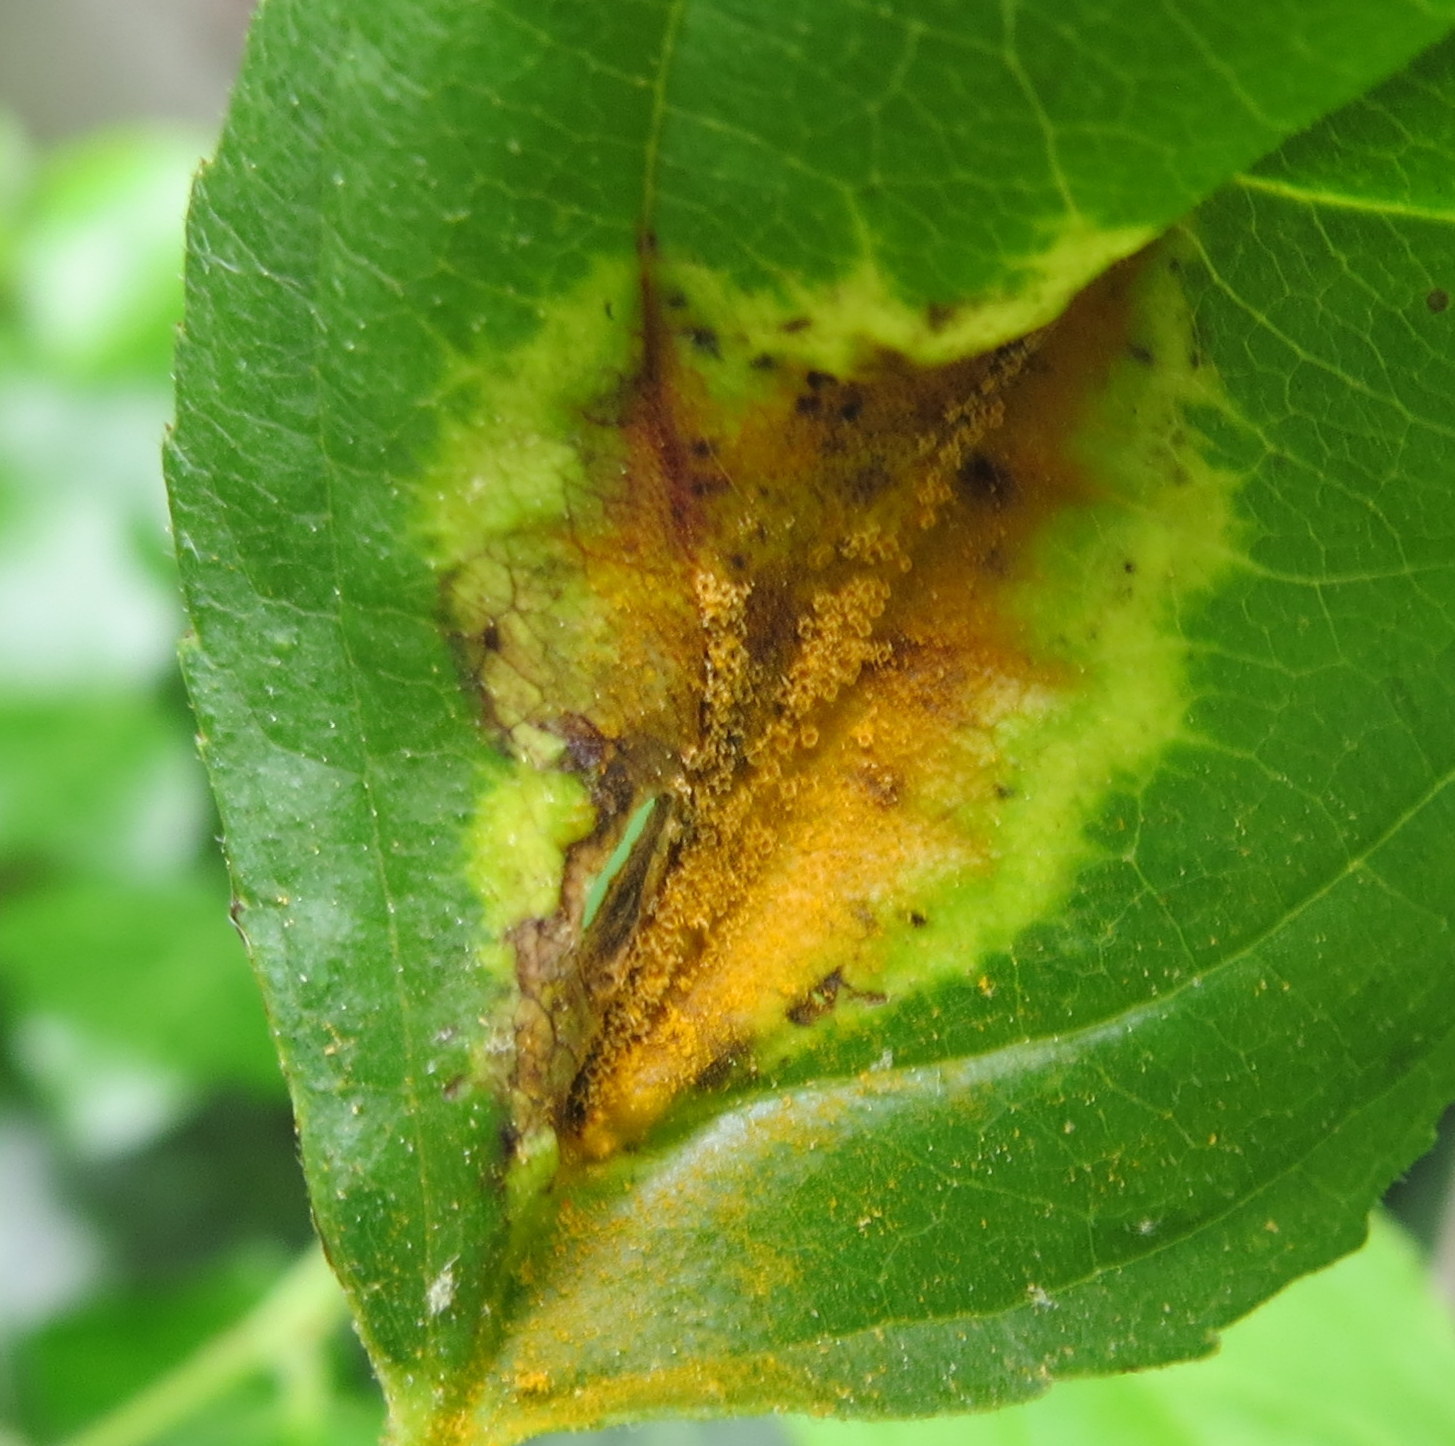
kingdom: Fungi
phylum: Basidiomycota
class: Pucciniomycetes
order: Pucciniales
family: Pucciniaceae
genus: Puccinia
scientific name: Puccinia coronata
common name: Crown rust
